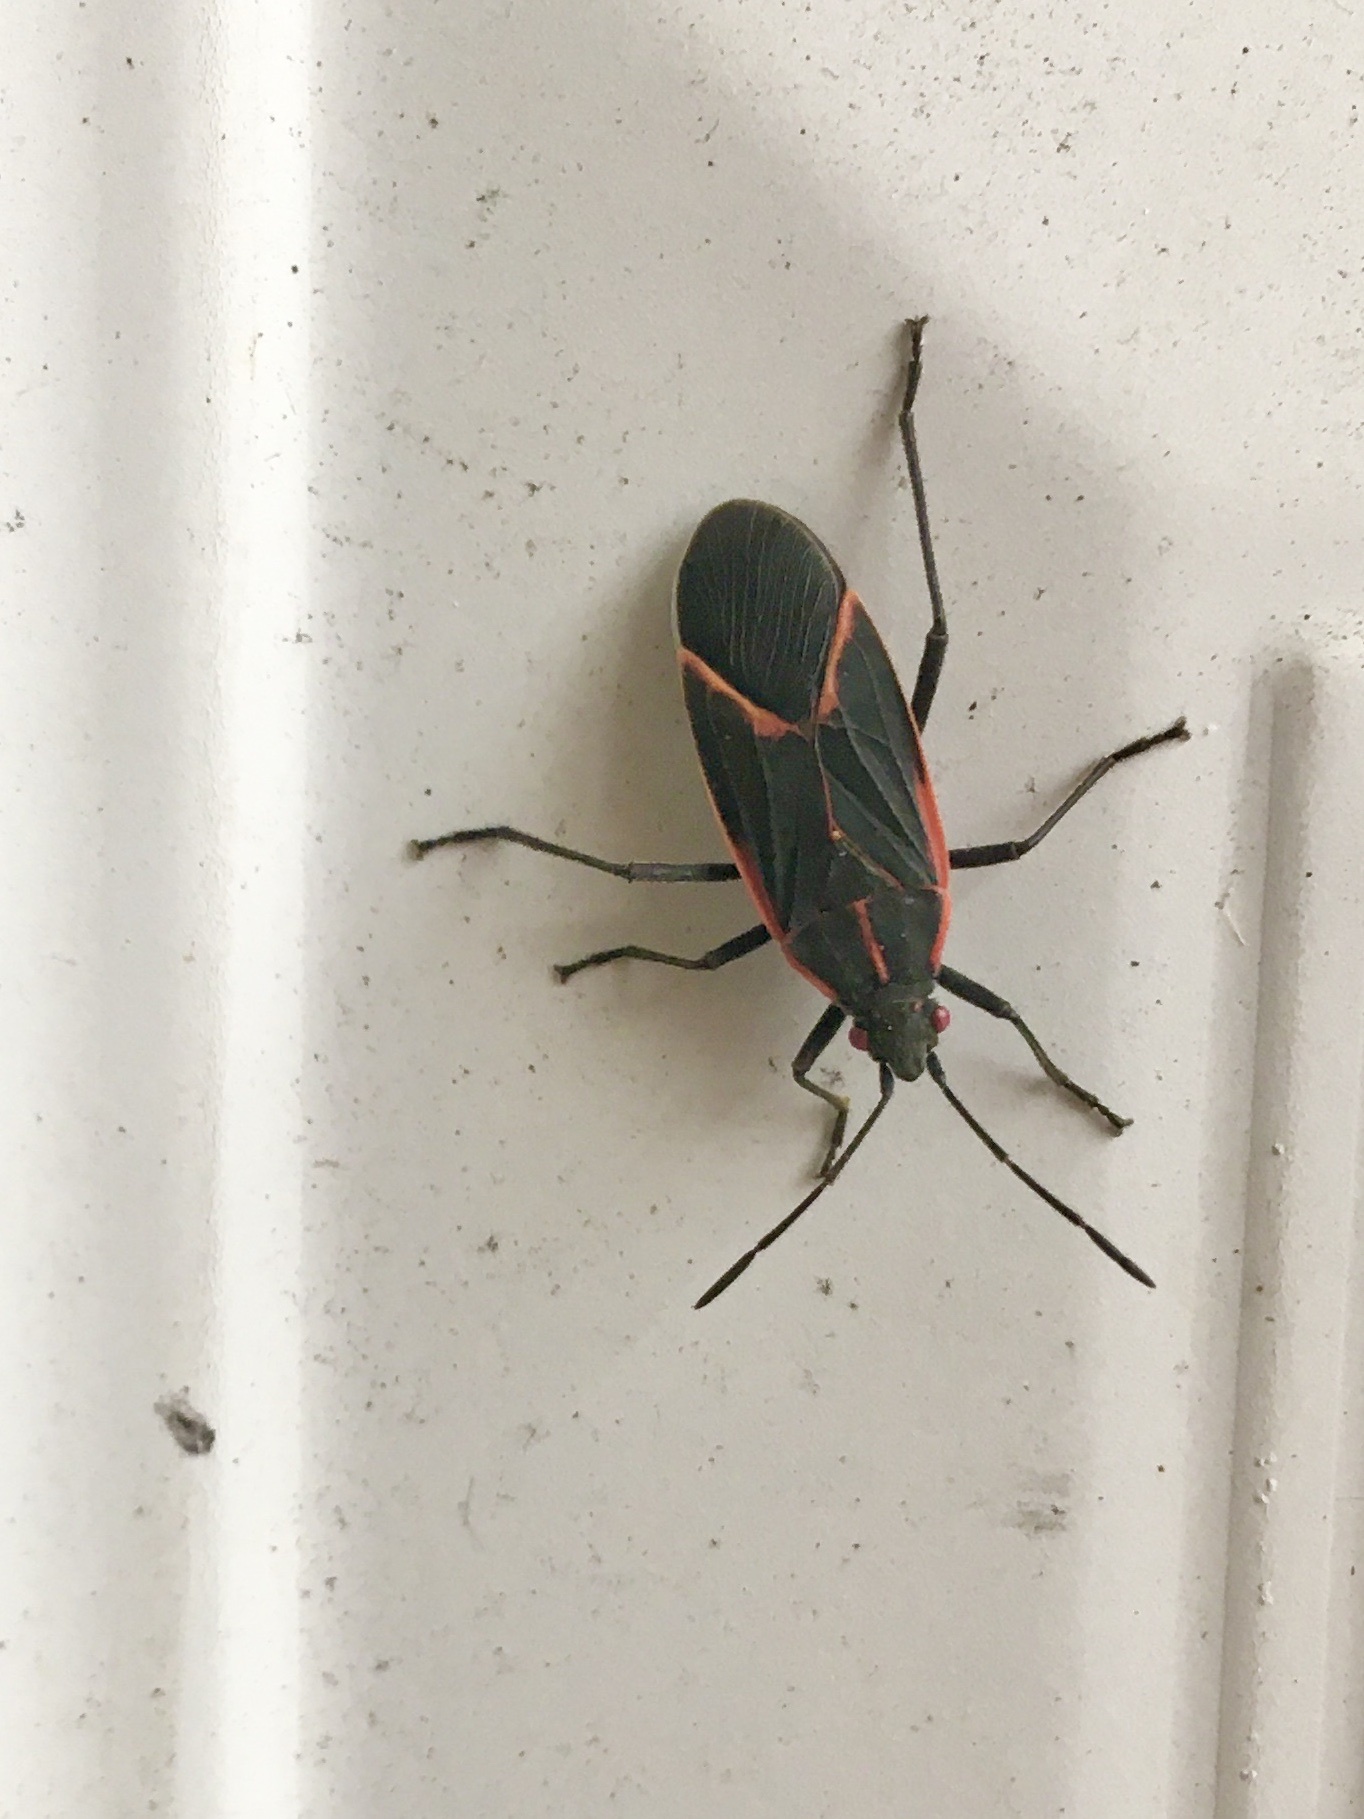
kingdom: Animalia
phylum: Arthropoda
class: Insecta
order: Hemiptera
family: Rhopalidae
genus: Boisea
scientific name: Boisea trivittata
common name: Boxelder bug
